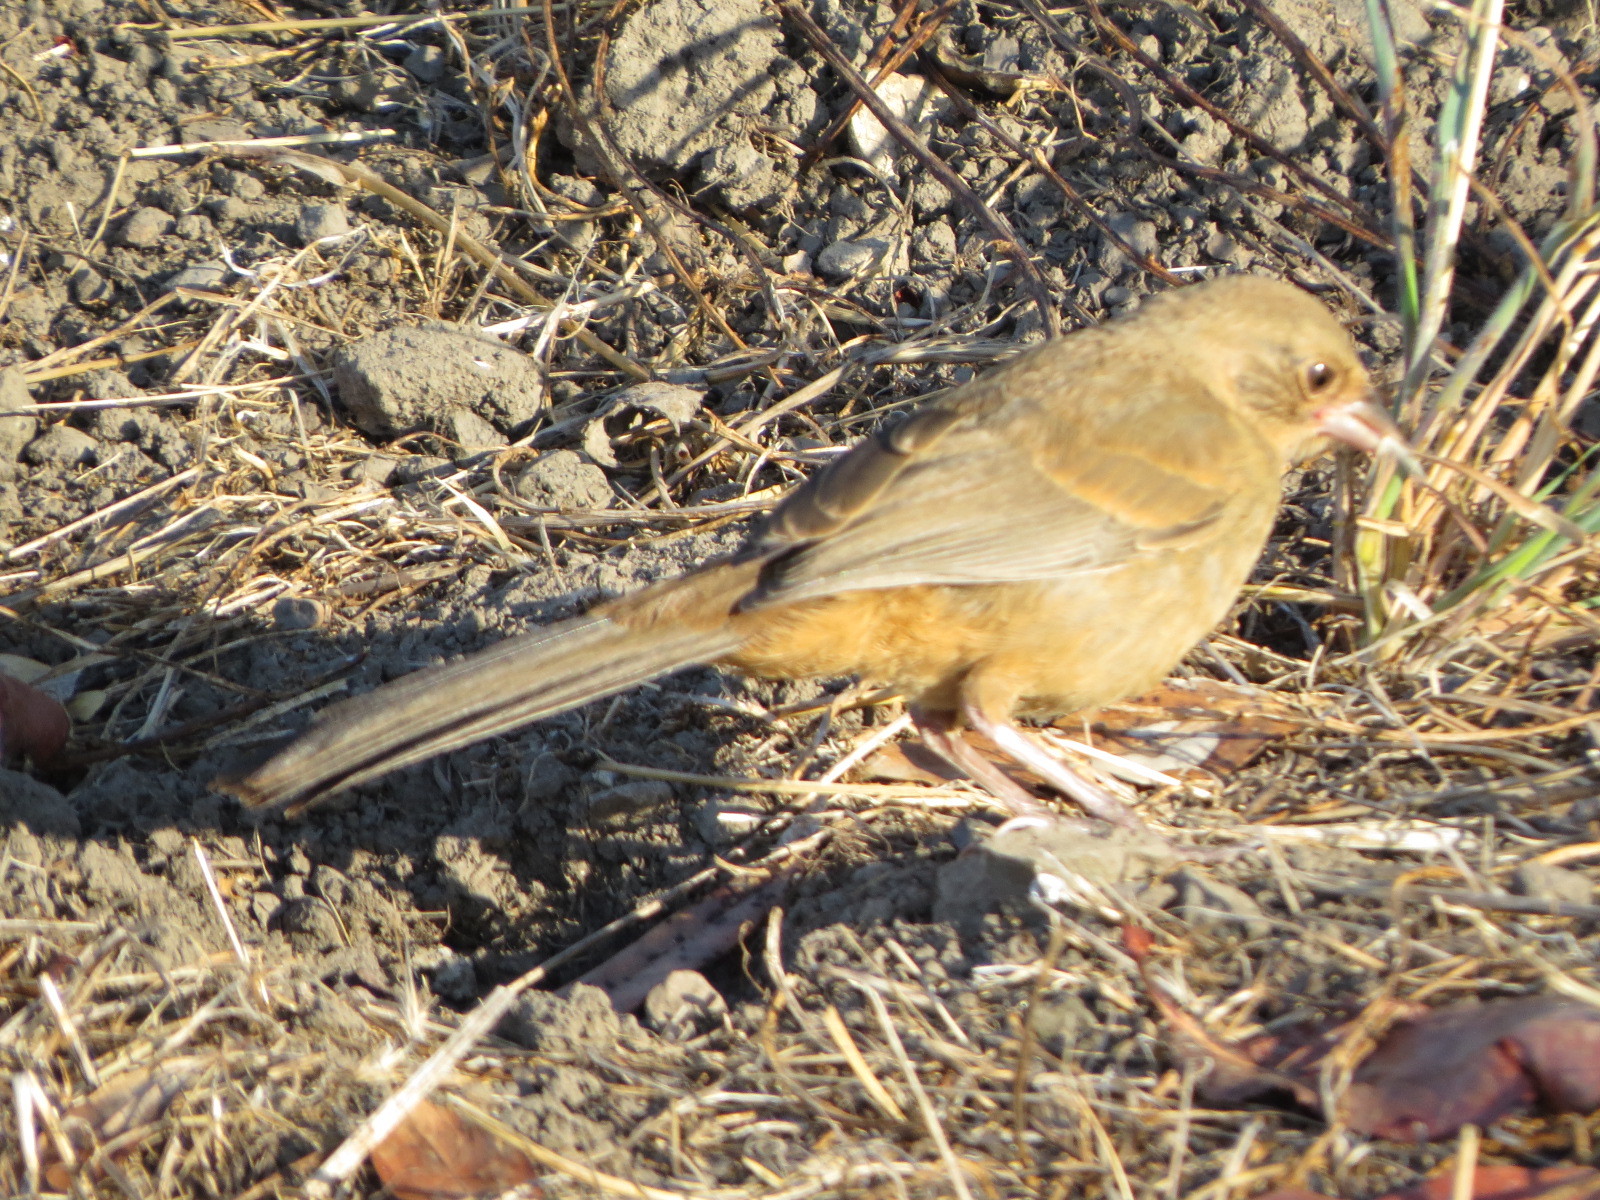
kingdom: Animalia
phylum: Chordata
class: Aves
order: Passeriformes
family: Passerellidae
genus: Melozone
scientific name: Melozone crissalis
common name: California towhee
